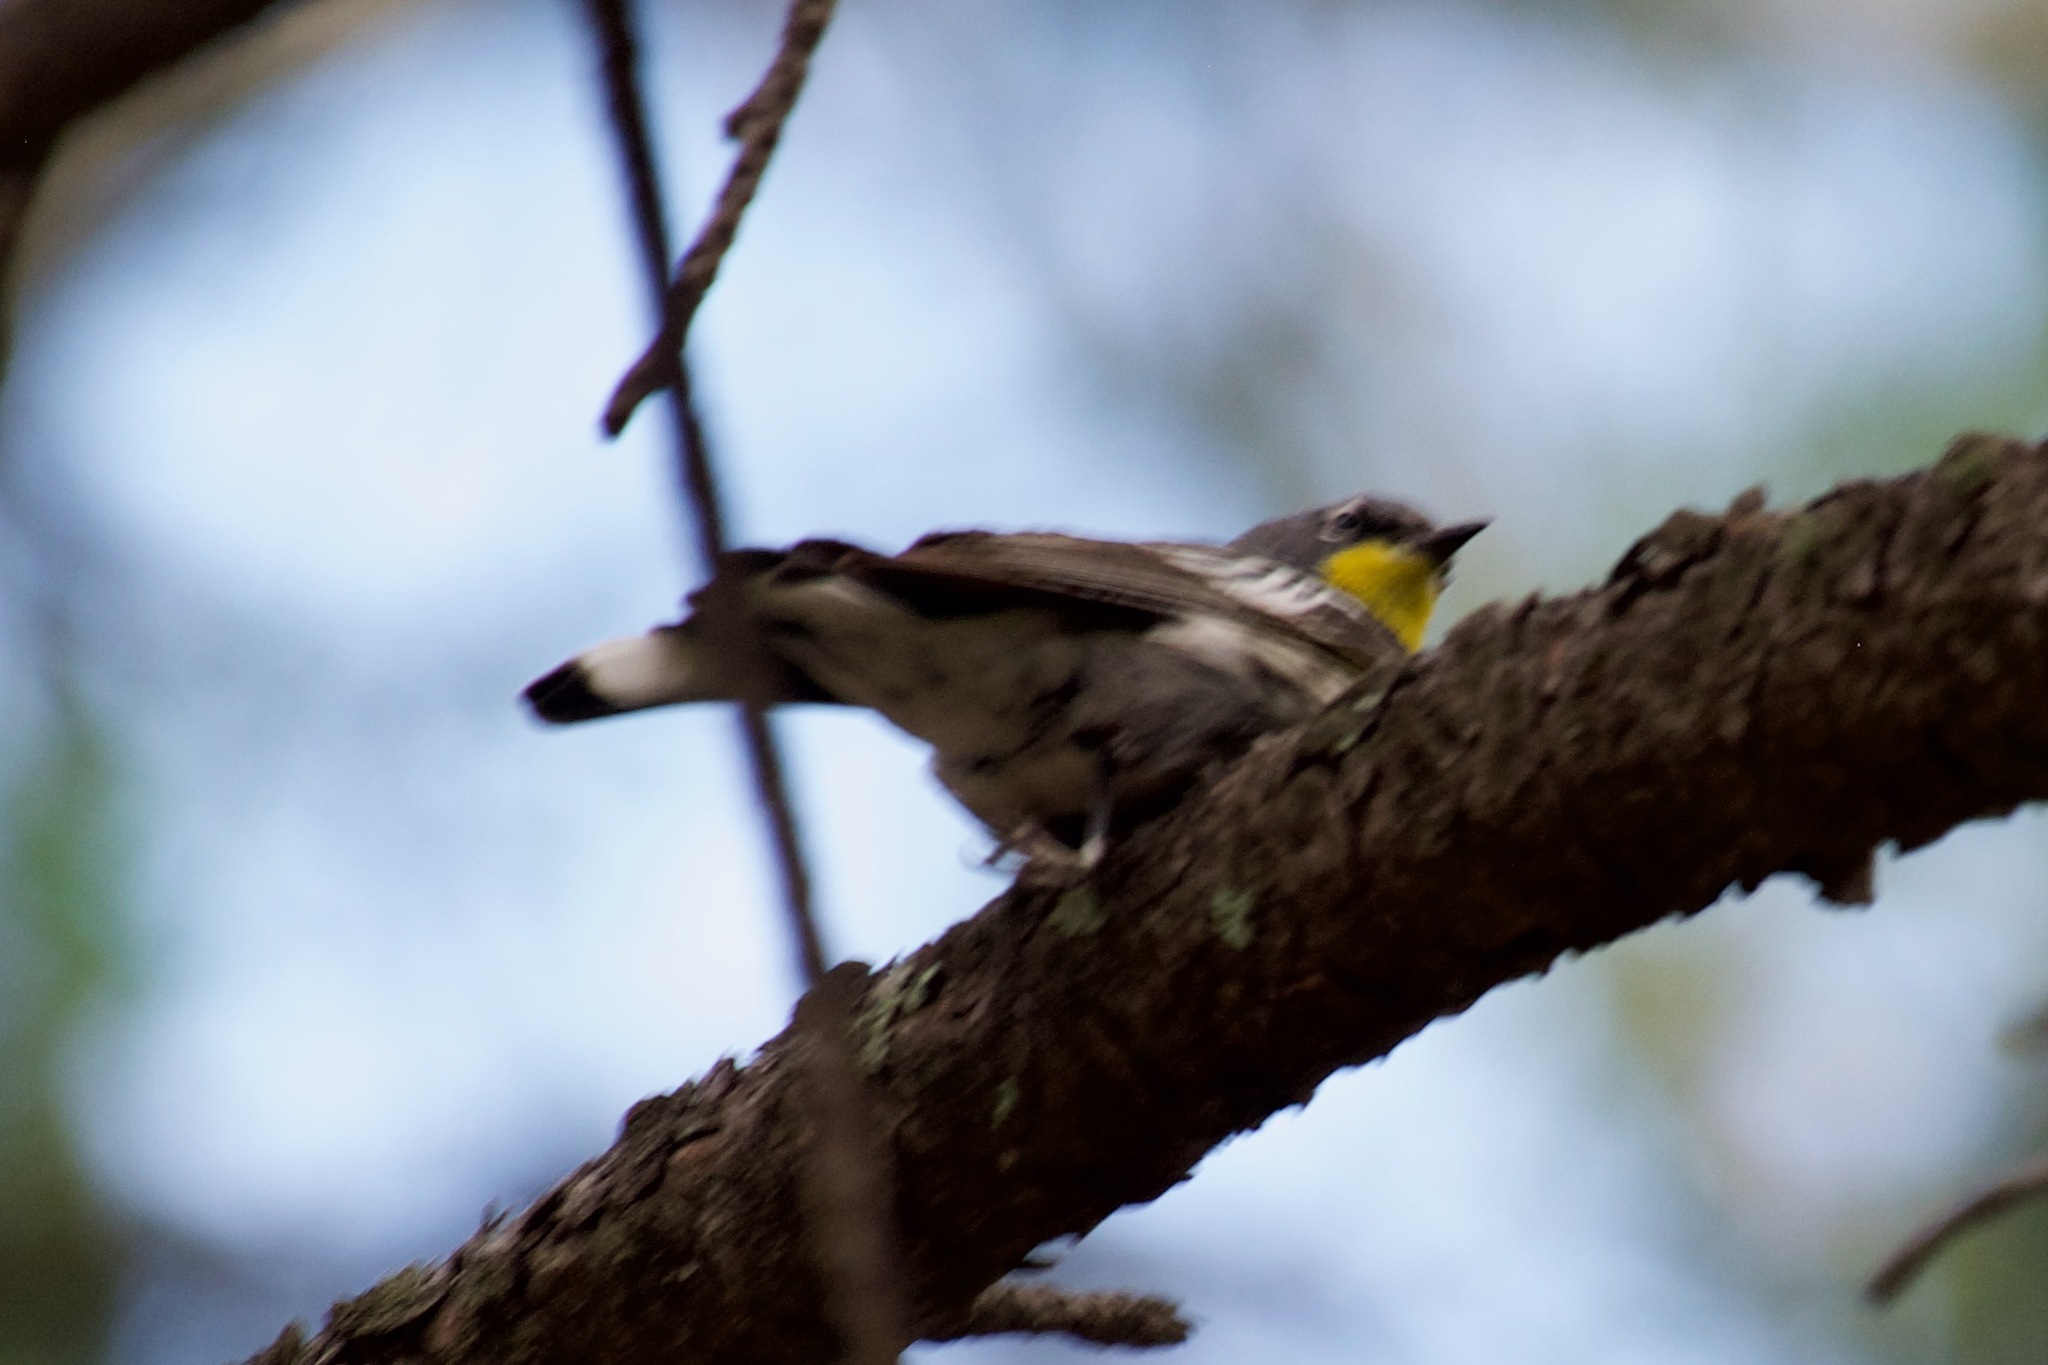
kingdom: Animalia
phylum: Chordata
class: Aves
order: Passeriformes
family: Parulidae
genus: Setophaga
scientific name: Setophaga auduboni
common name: Audubon's warbler
